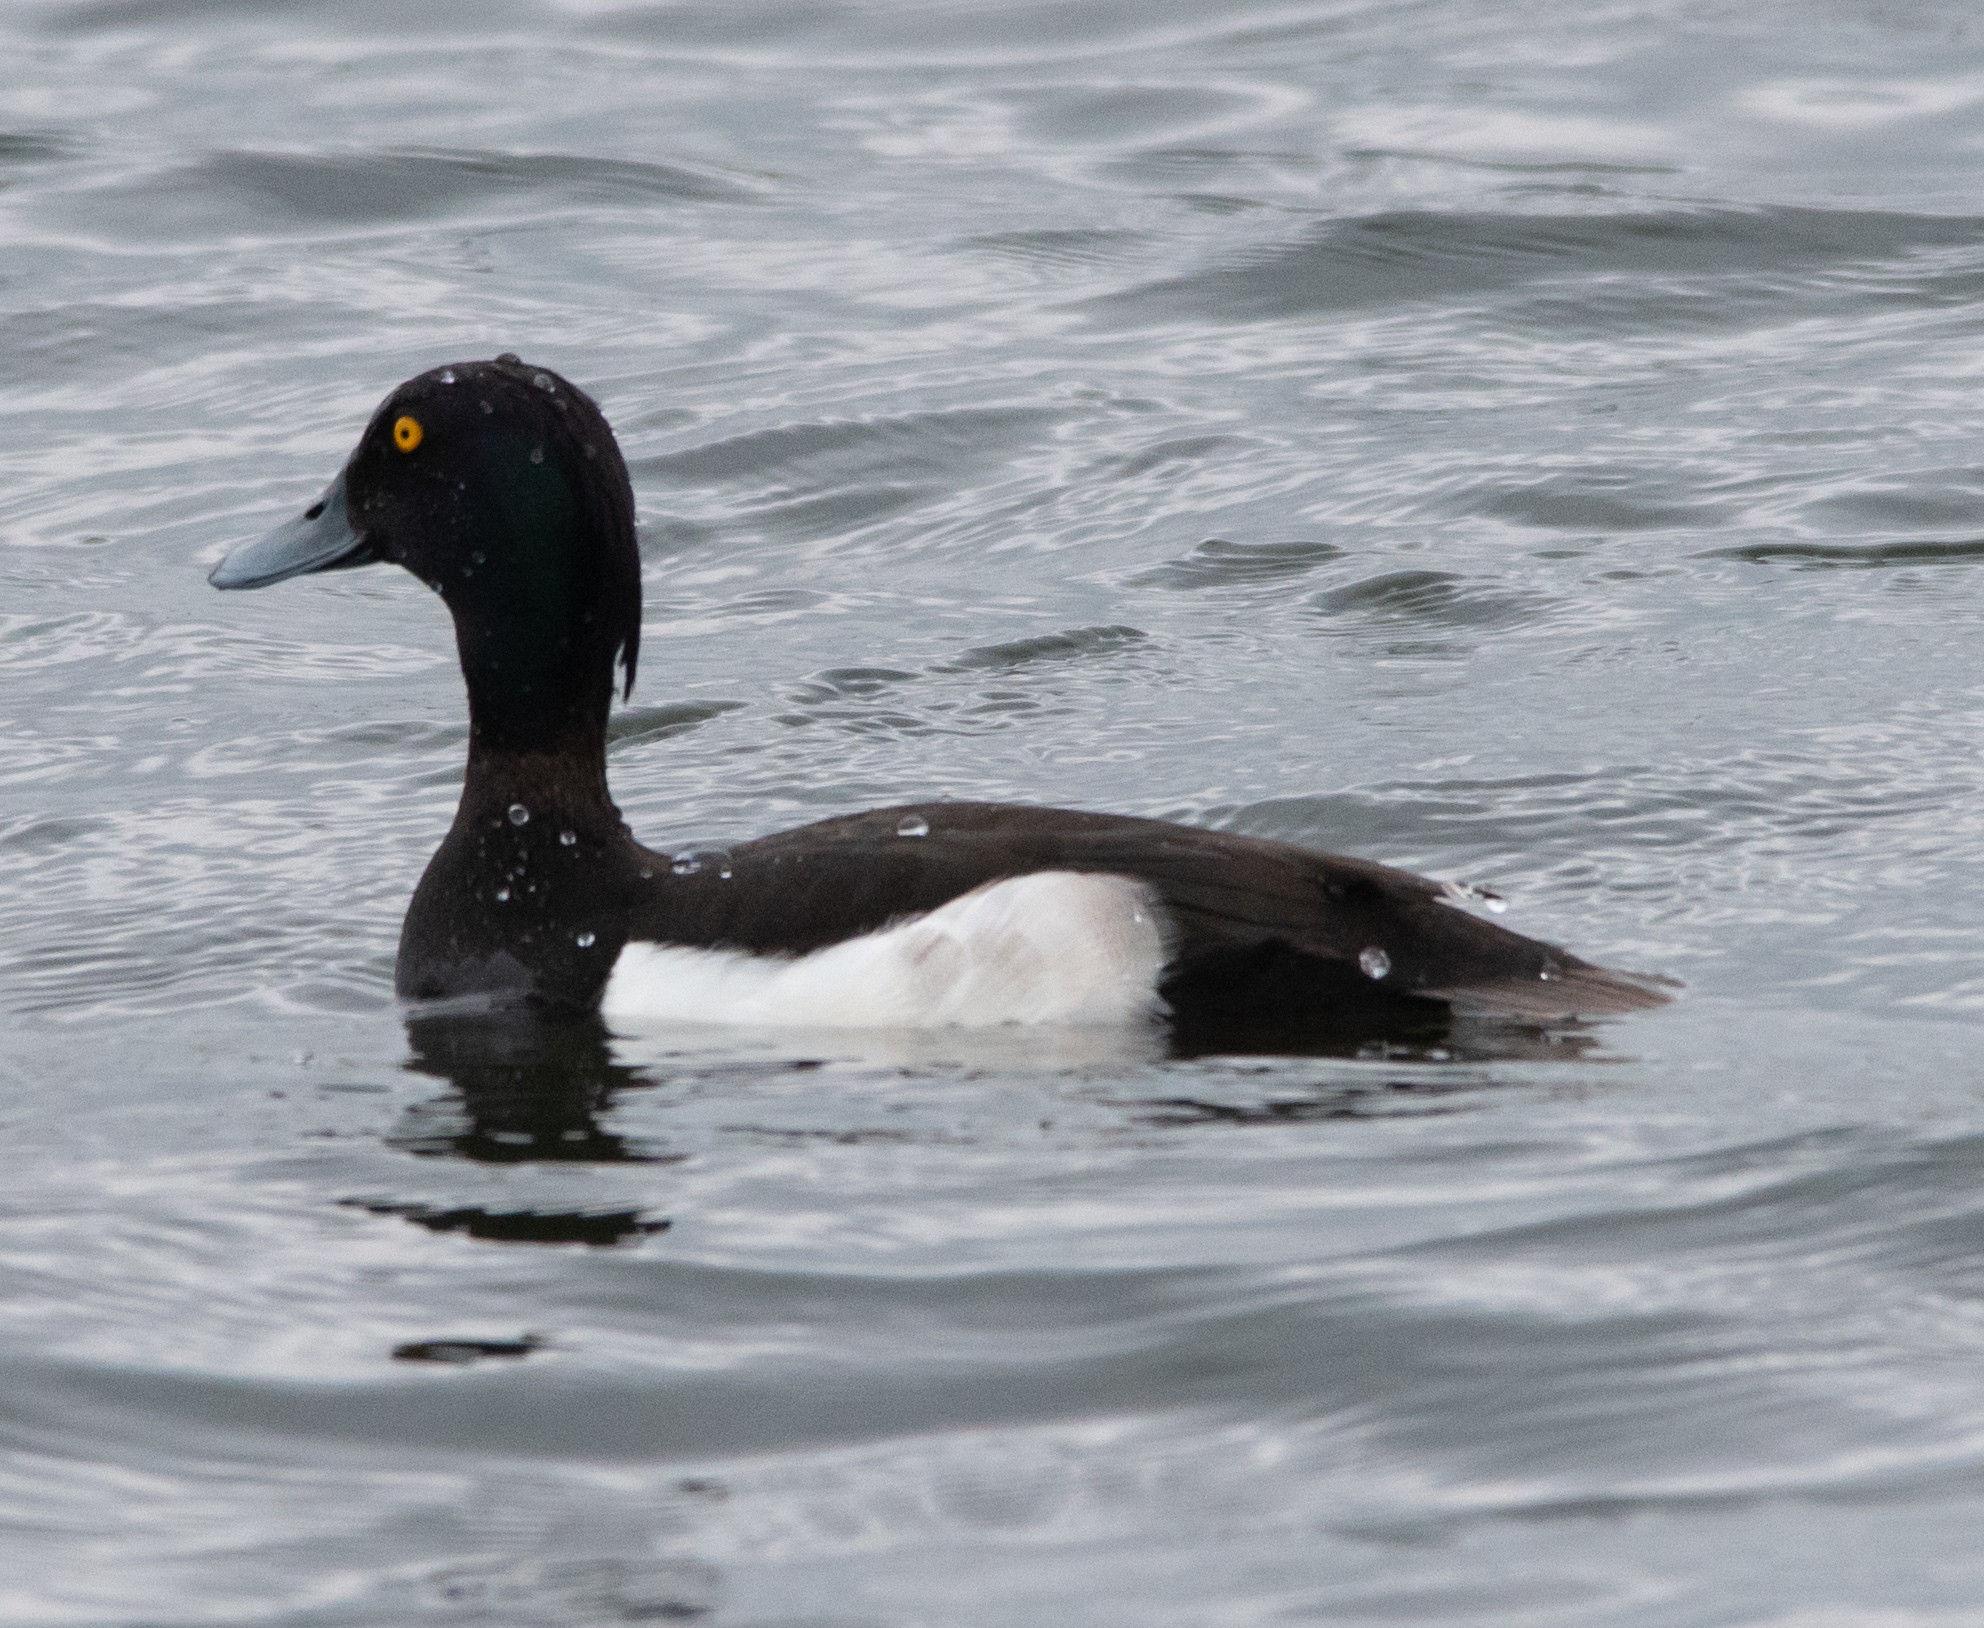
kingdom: Animalia
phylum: Chordata
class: Aves
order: Anseriformes
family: Anatidae
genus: Aythya
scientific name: Aythya fuligula
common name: Tufted duck
